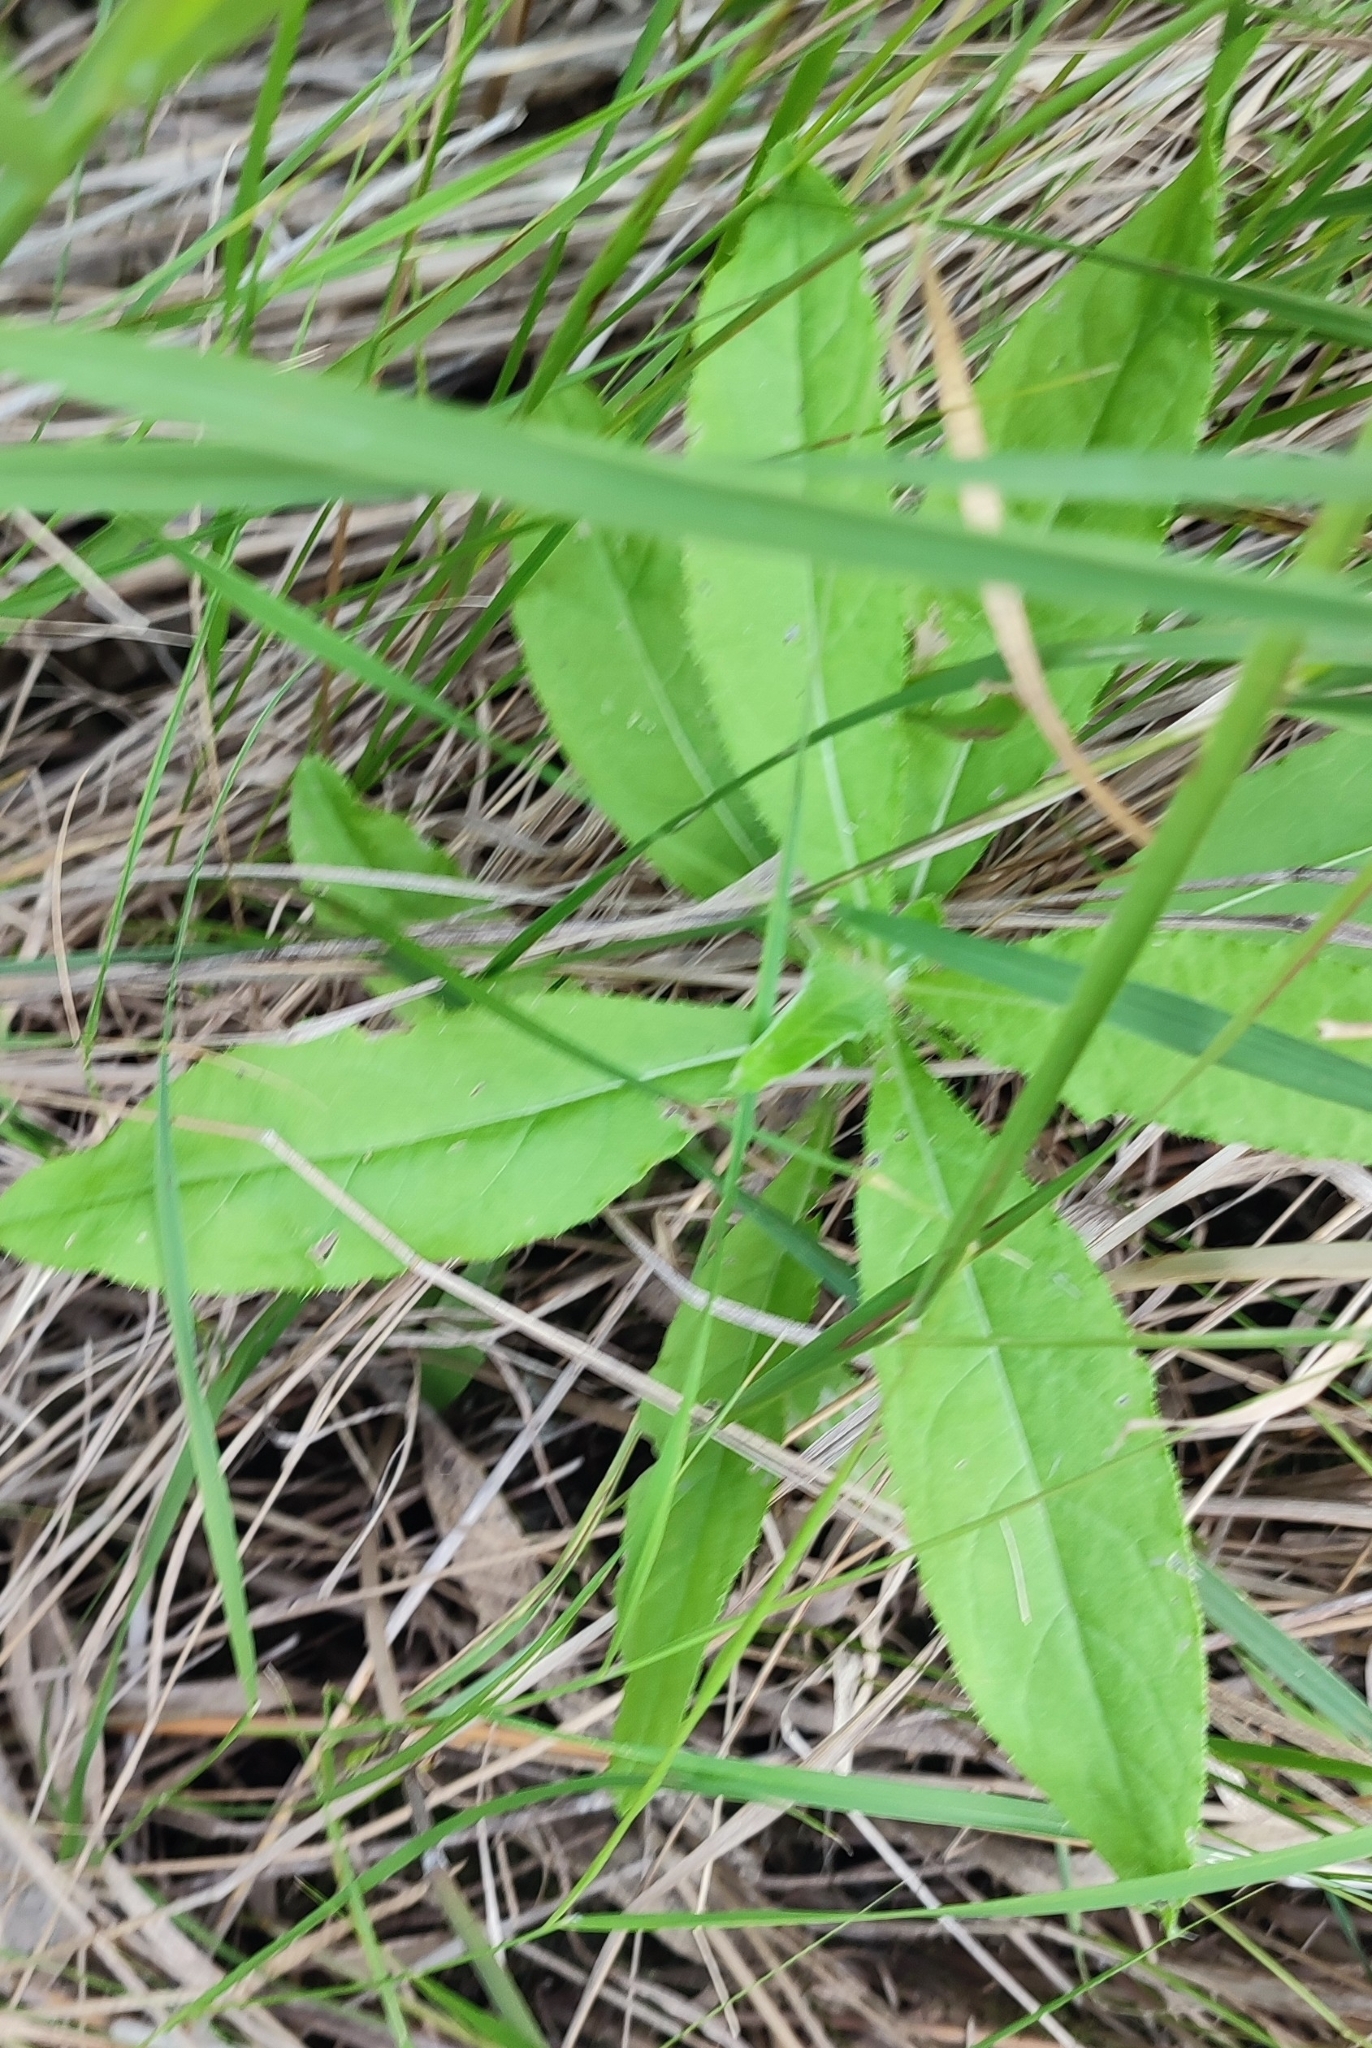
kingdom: Plantae
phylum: Tracheophyta
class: Magnoliopsida
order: Asterales
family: Asteraceae
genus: Cirsium
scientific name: Cirsium arvense
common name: Creeping thistle
